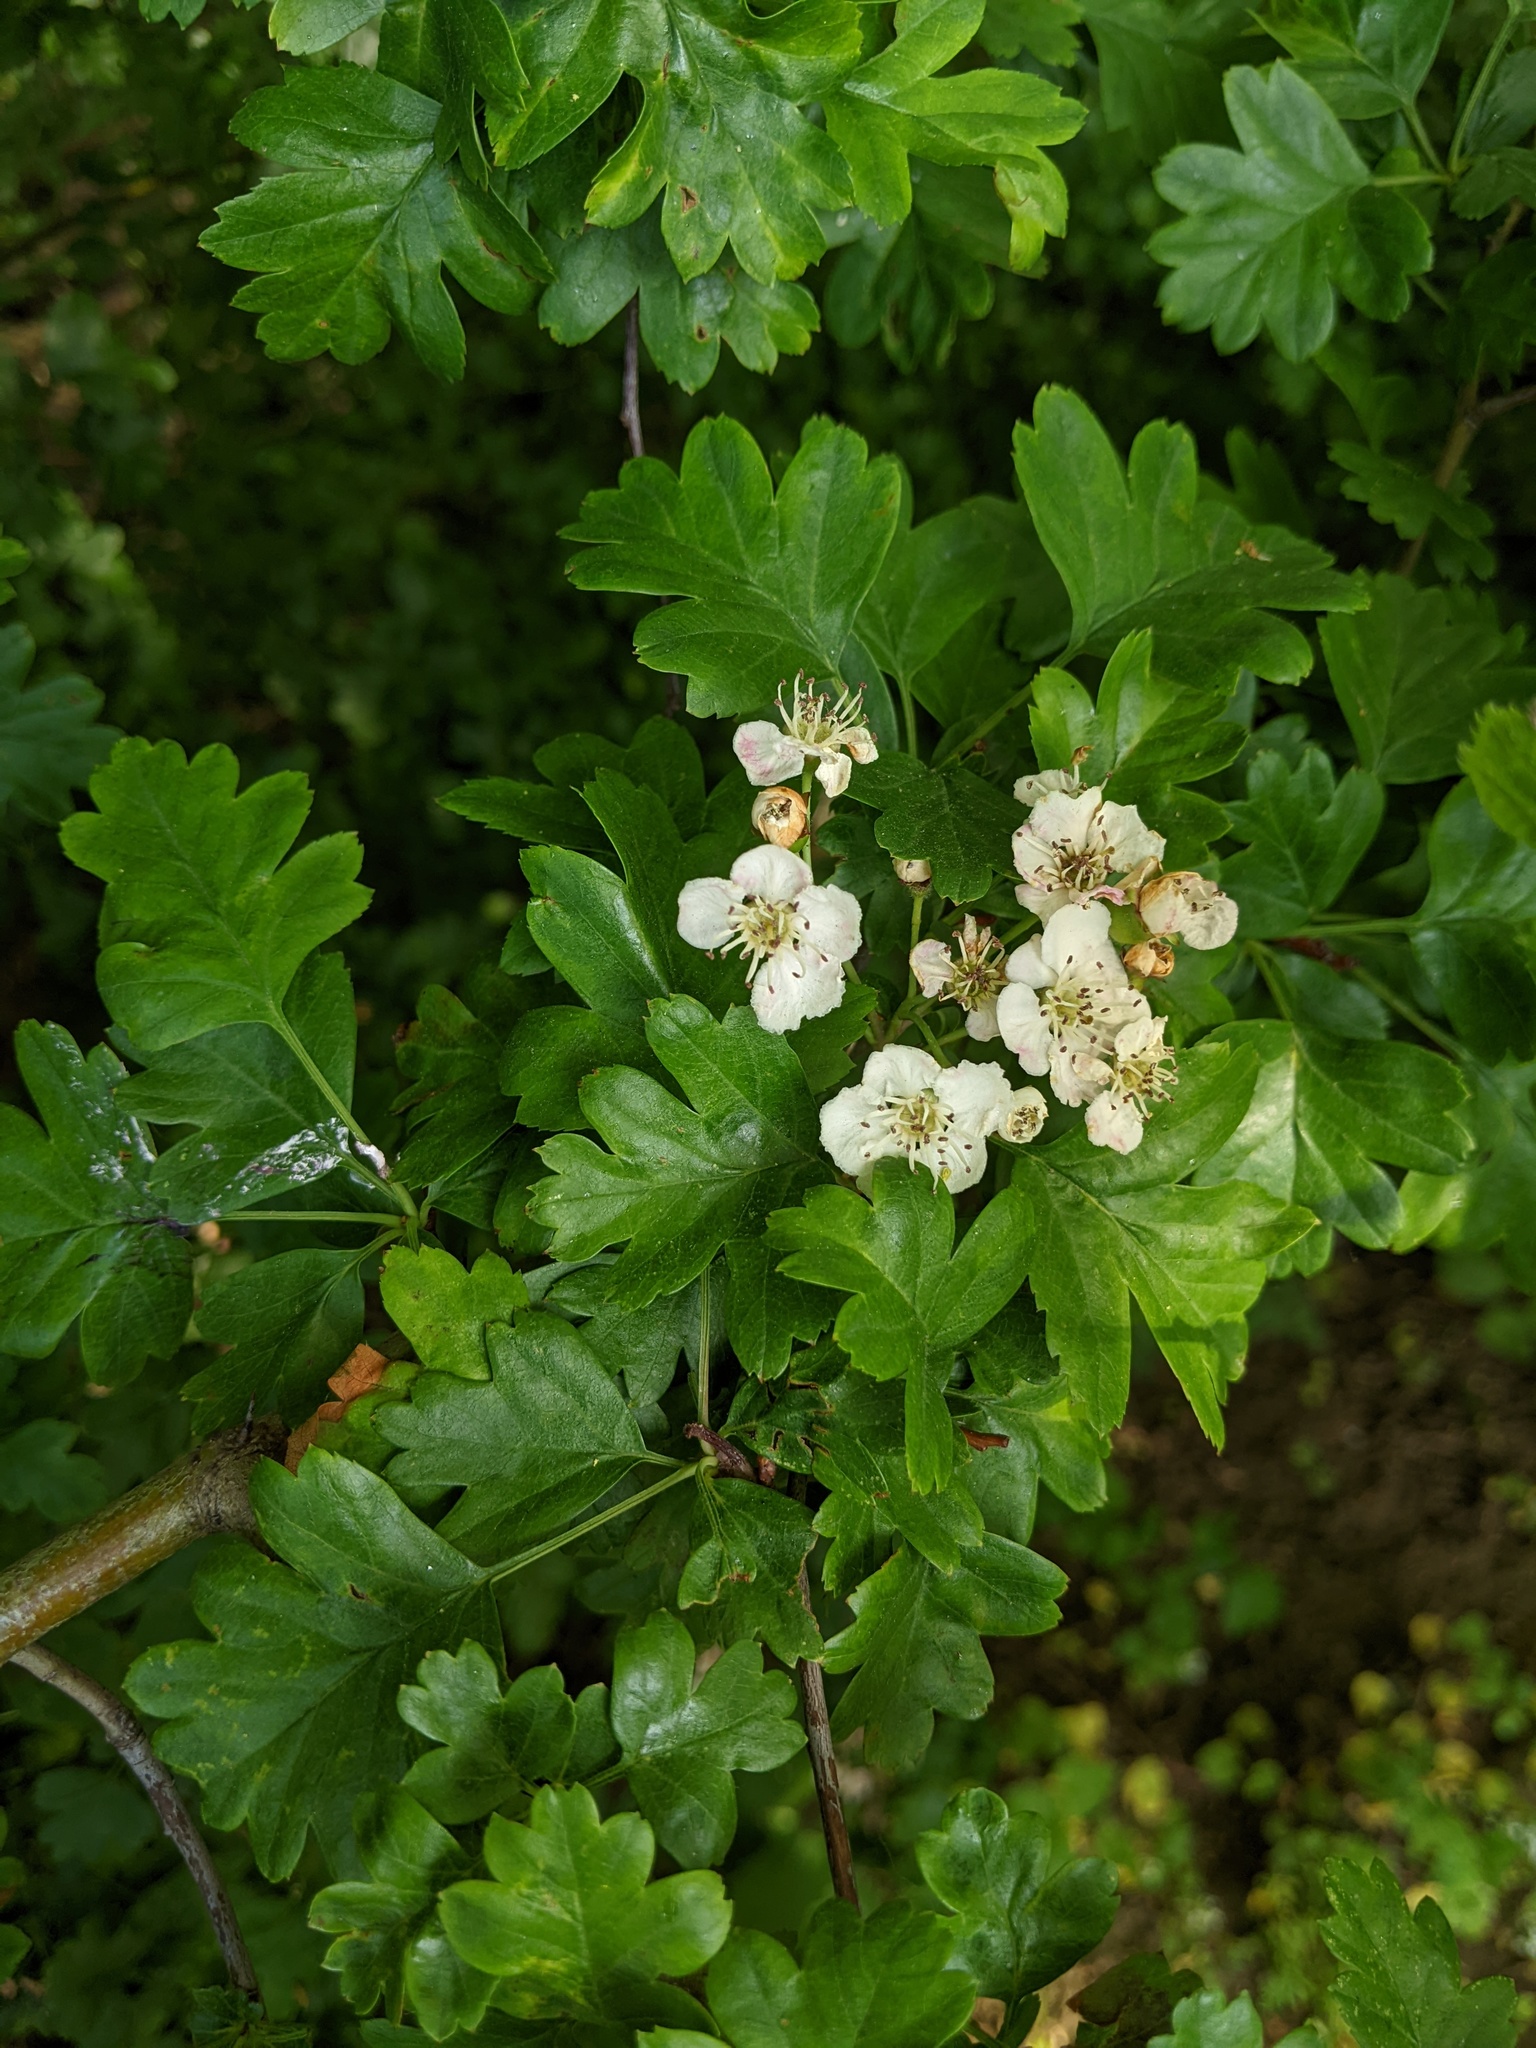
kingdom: Plantae
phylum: Tracheophyta
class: Magnoliopsida
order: Rosales
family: Rosaceae
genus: Crataegus
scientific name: Crataegus monogyna
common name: Hawthorn
